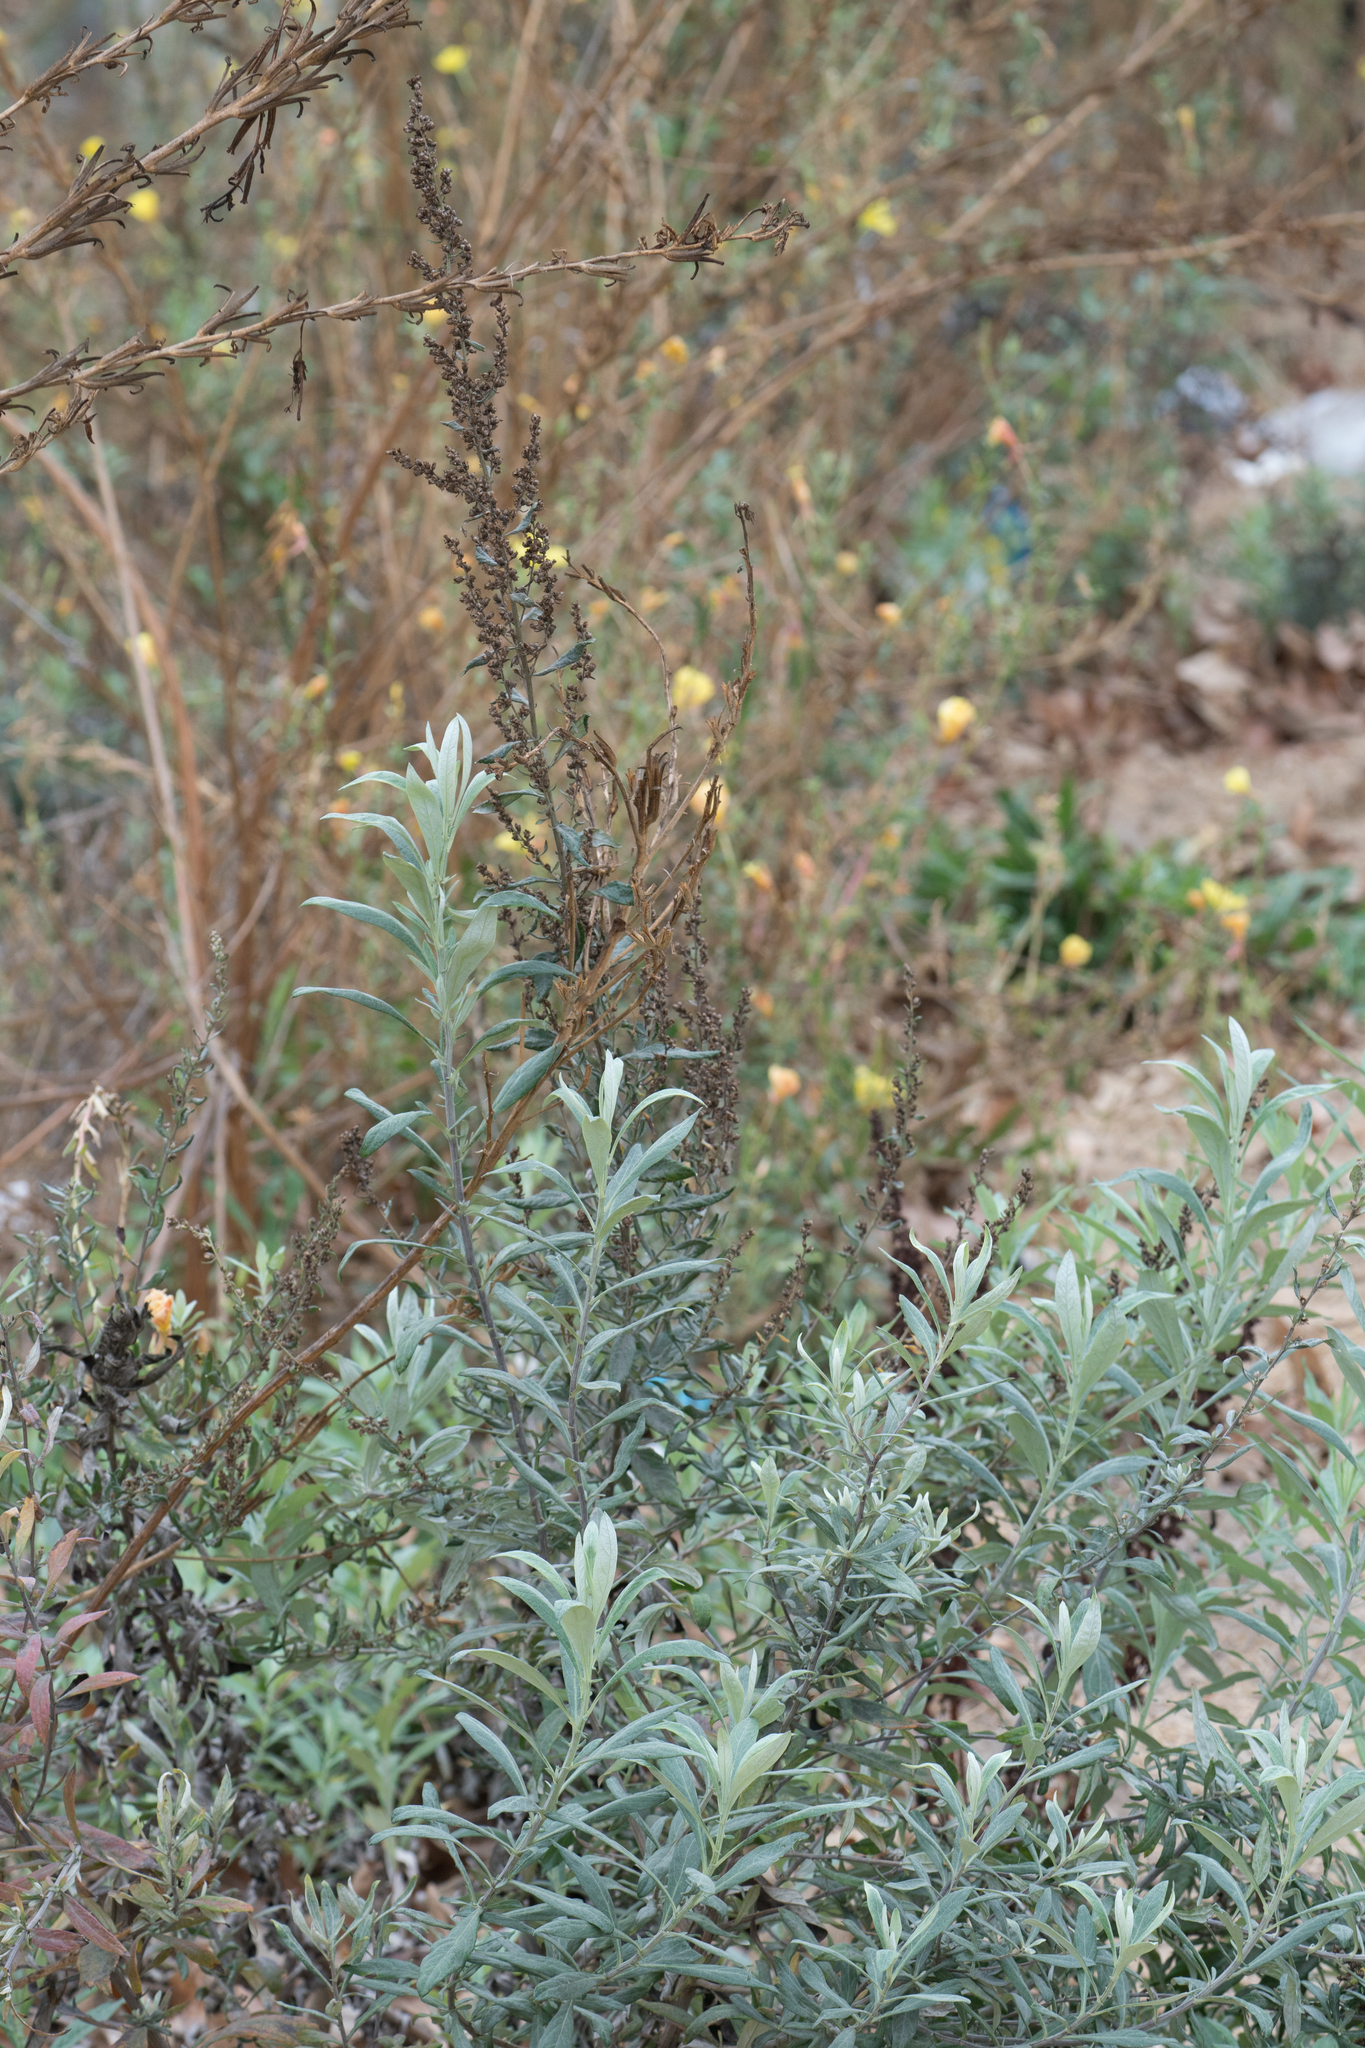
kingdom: Plantae
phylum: Tracheophyta
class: Magnoliopsida
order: Asterales
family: Asteraceae
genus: Artemisia
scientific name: Artemisia douglasiana
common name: Northwest mugwort
